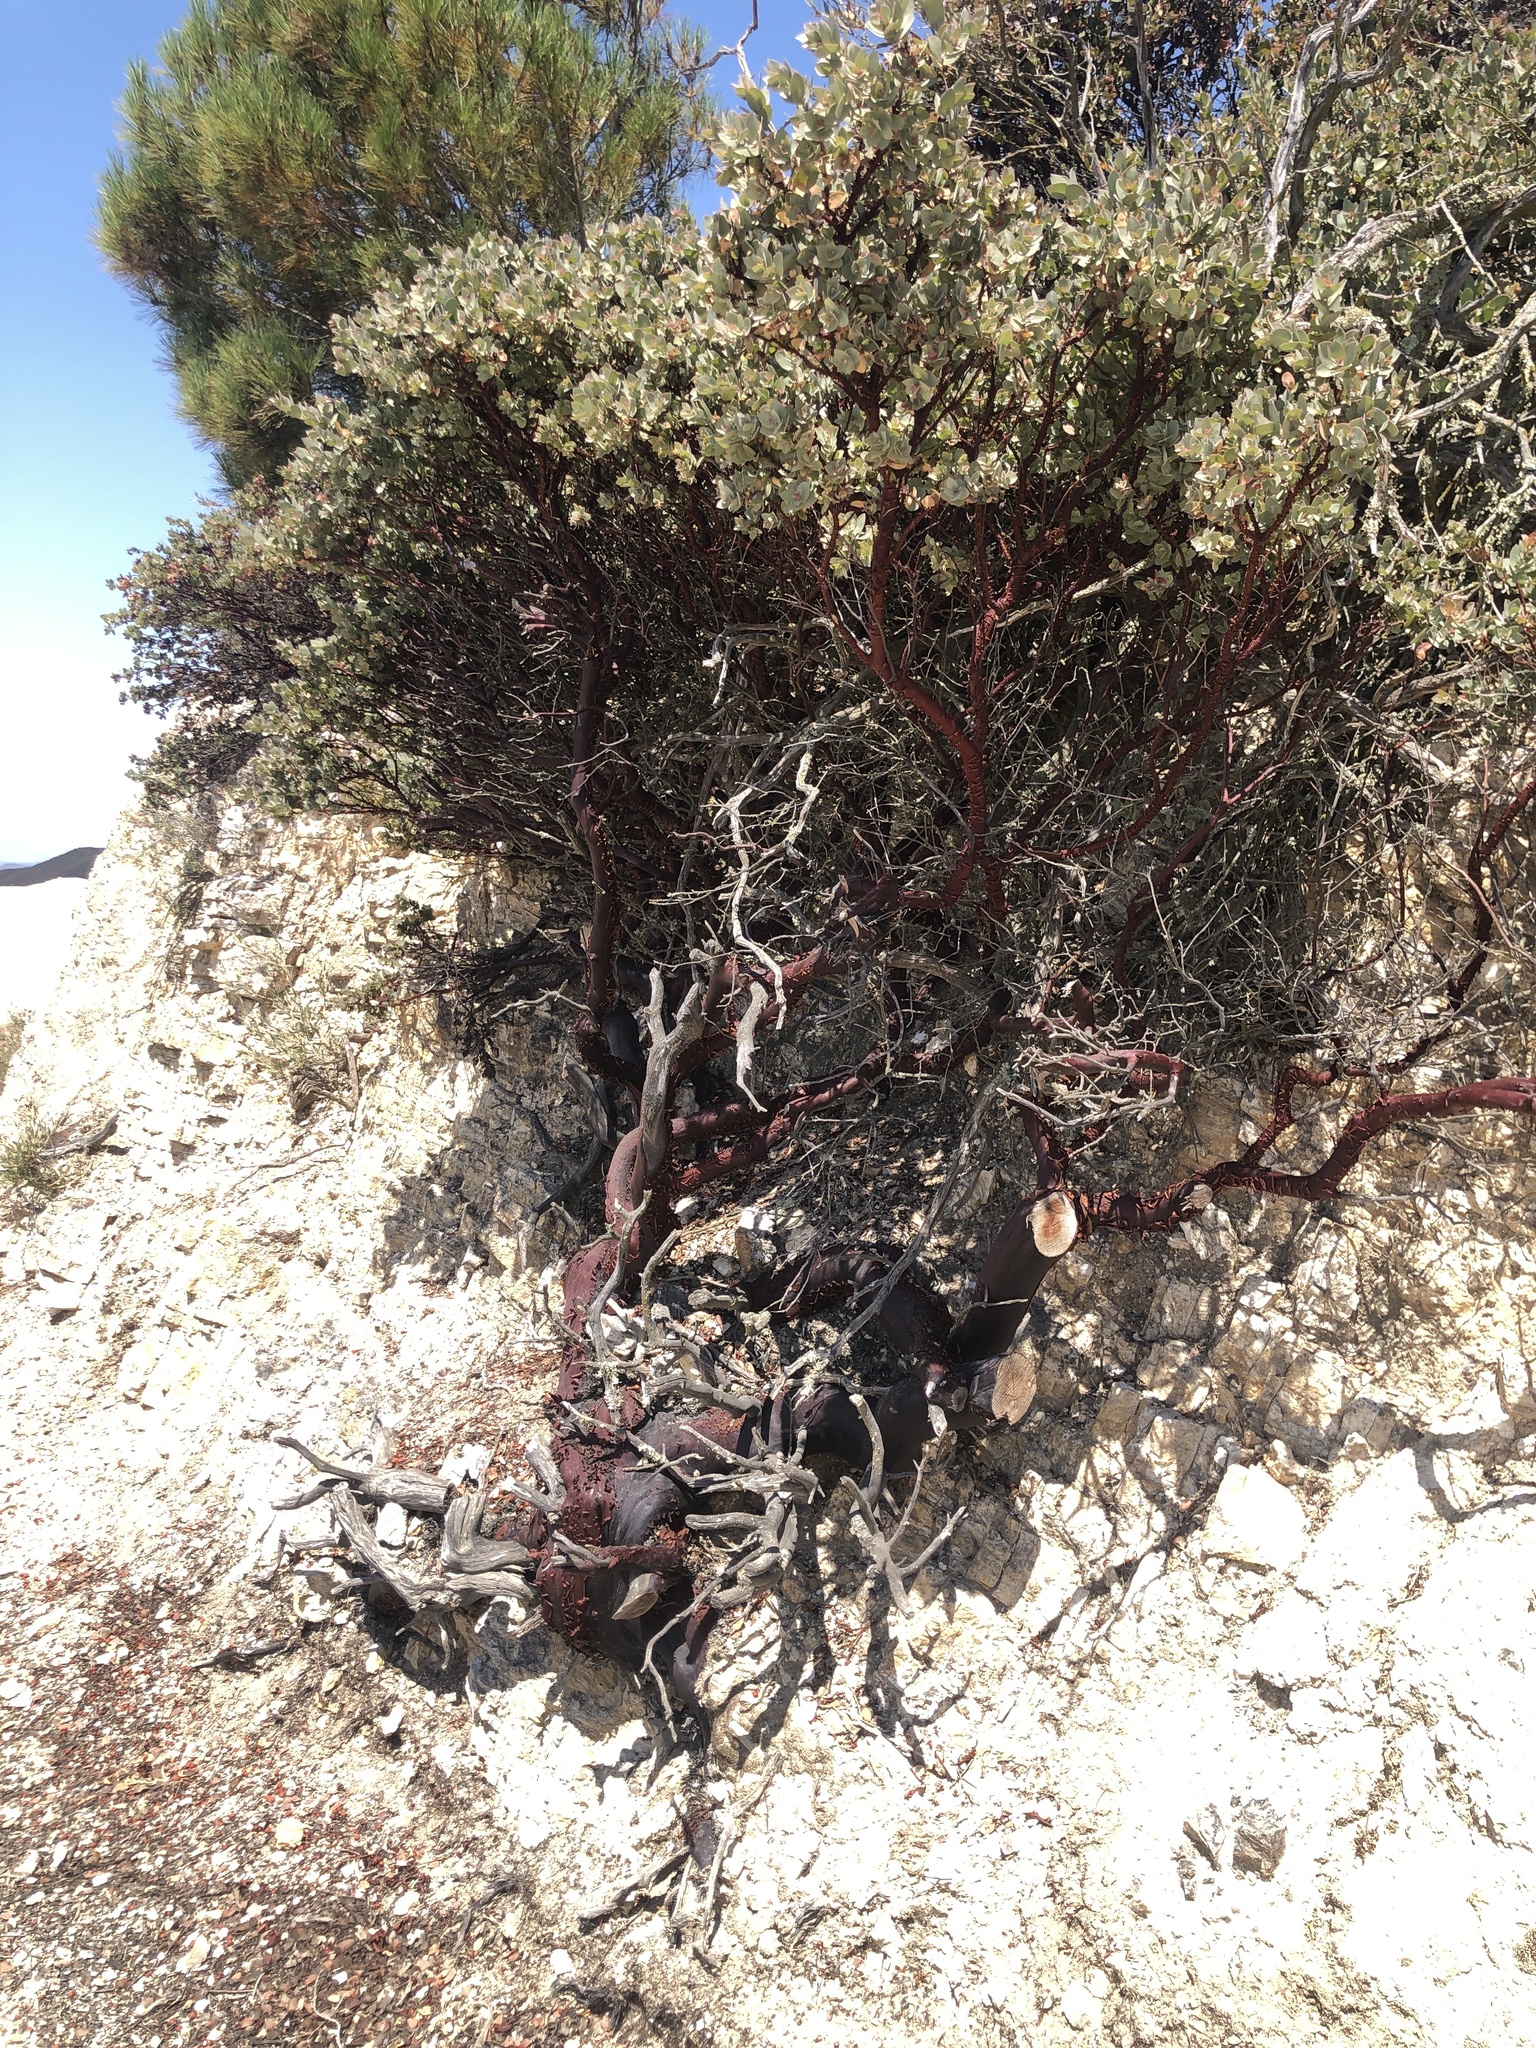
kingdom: Plantae
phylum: Tracheophyta
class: Magnoliopsida
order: Ericales
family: Ericaceae
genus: Arctostaphylos
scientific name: Arctostaphylos luciana
